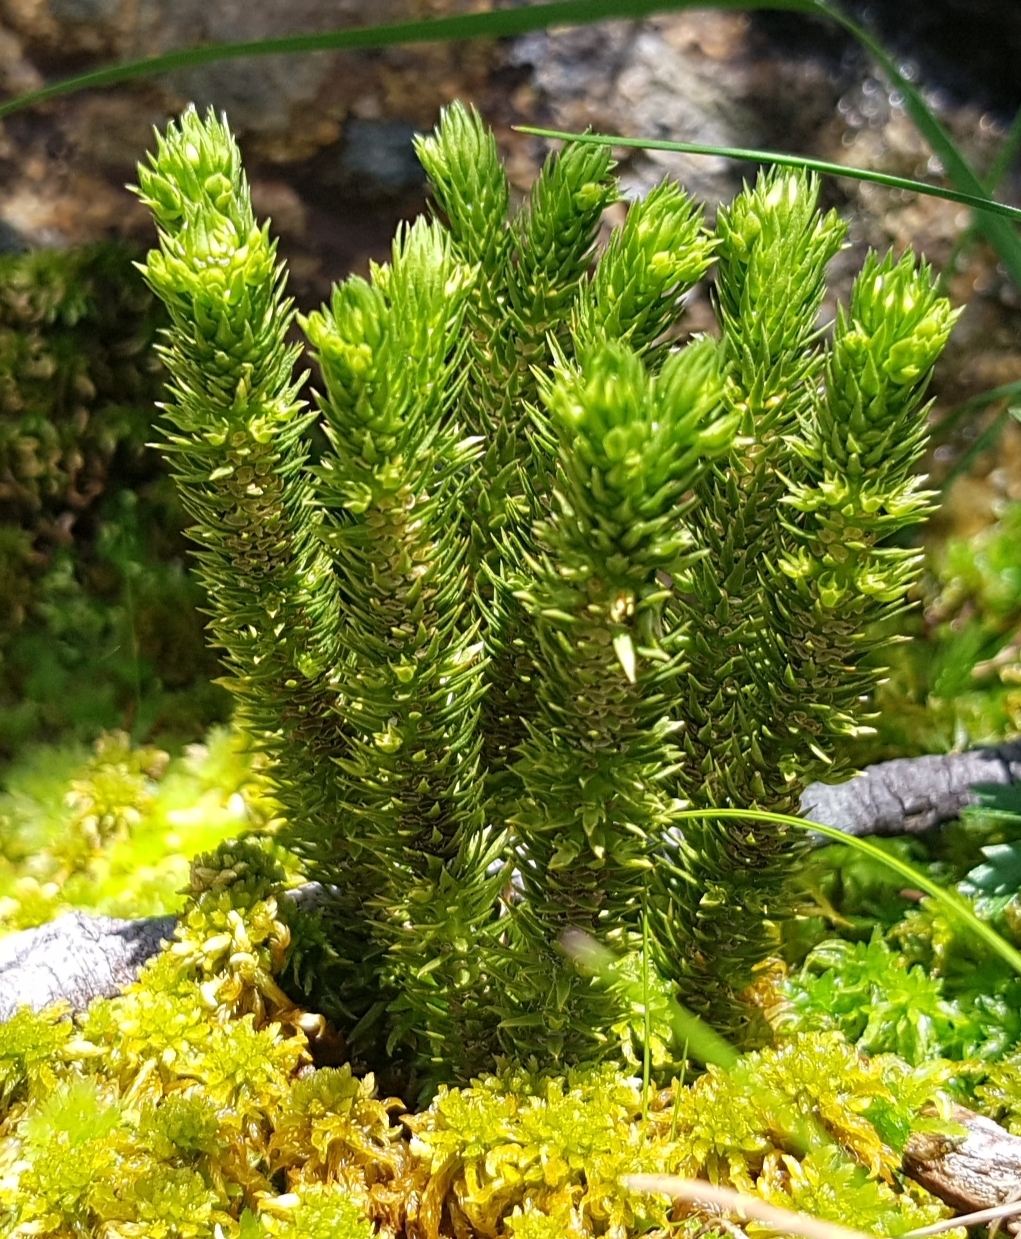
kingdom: Plantae
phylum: Tracheophyta
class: Lycopodiopsida
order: Lycopodiales
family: Lycopodiaceae
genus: Huperzia
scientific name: Huperzia selago
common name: Northern firmoss
